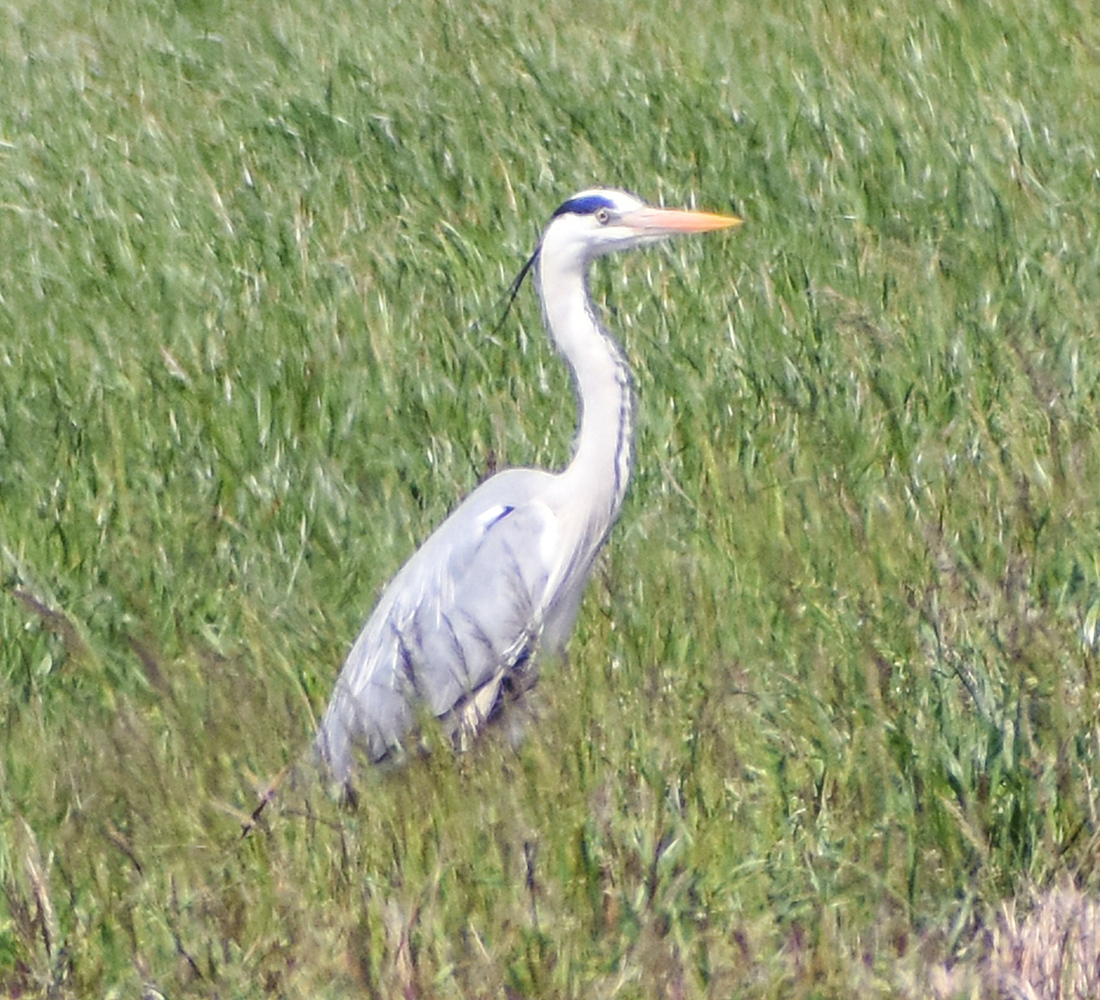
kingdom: Animalia
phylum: Chordata
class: Aves
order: Pelecaniformes
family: Ardeidae
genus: Ardea
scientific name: Ardea cinerea
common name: Grey heron
